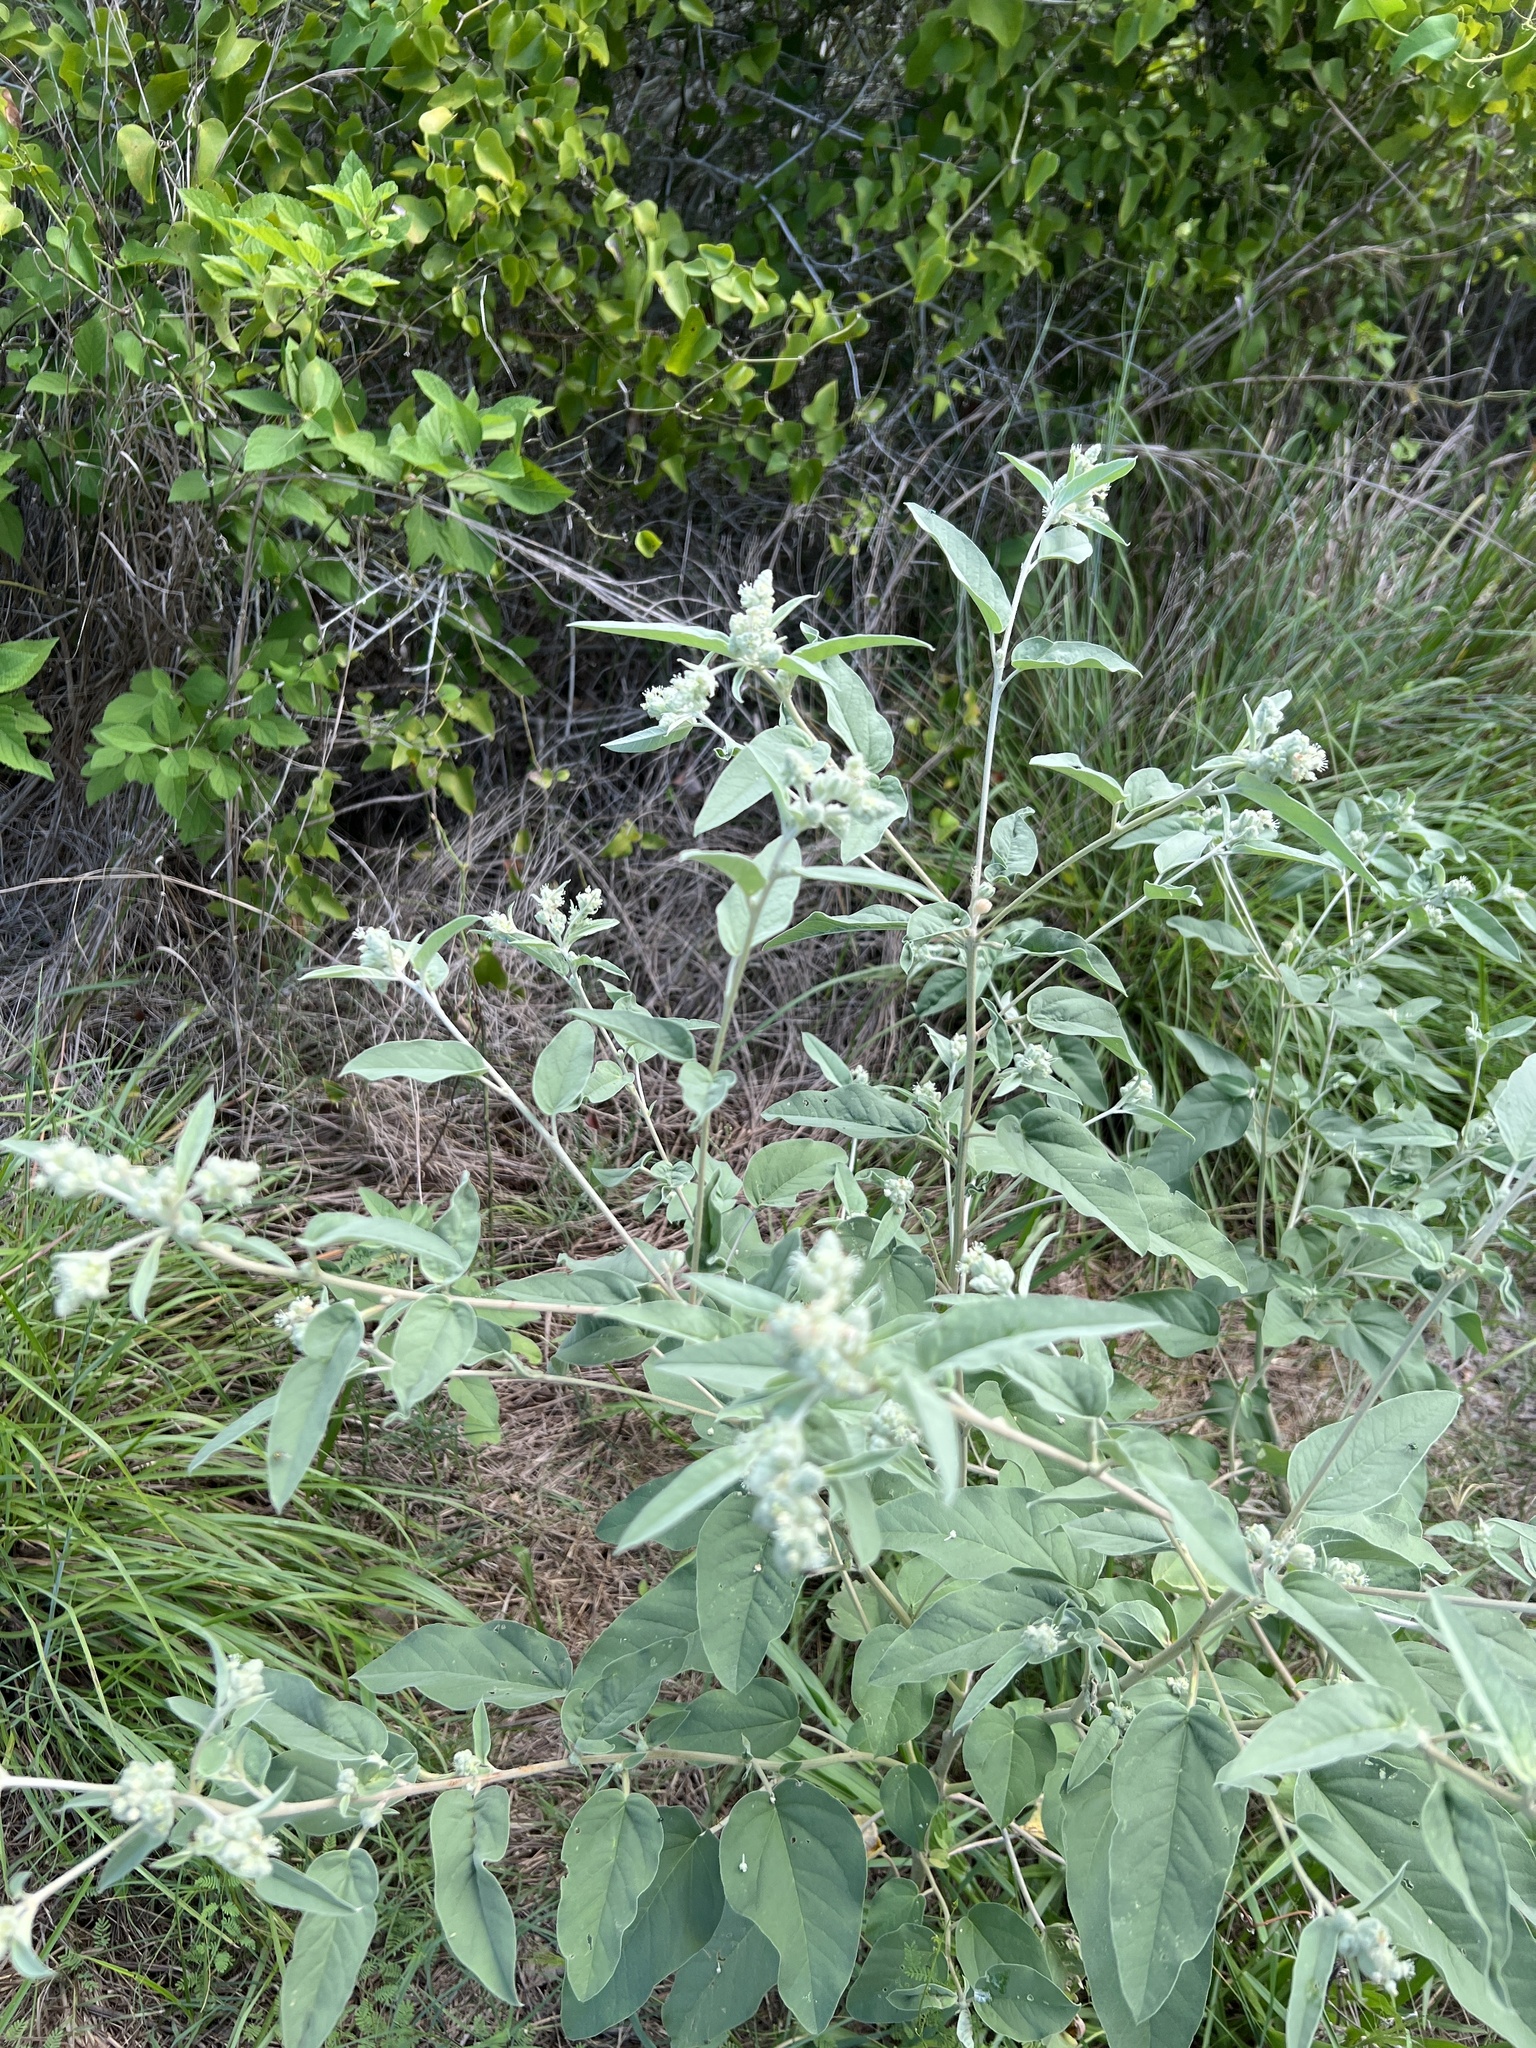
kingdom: Plantae
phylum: Tracheophyta
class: Magnoliopsida
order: Malpighiales
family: Euphorbiaceae
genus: Croton
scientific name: Croton heptalon
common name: Woolly croton
